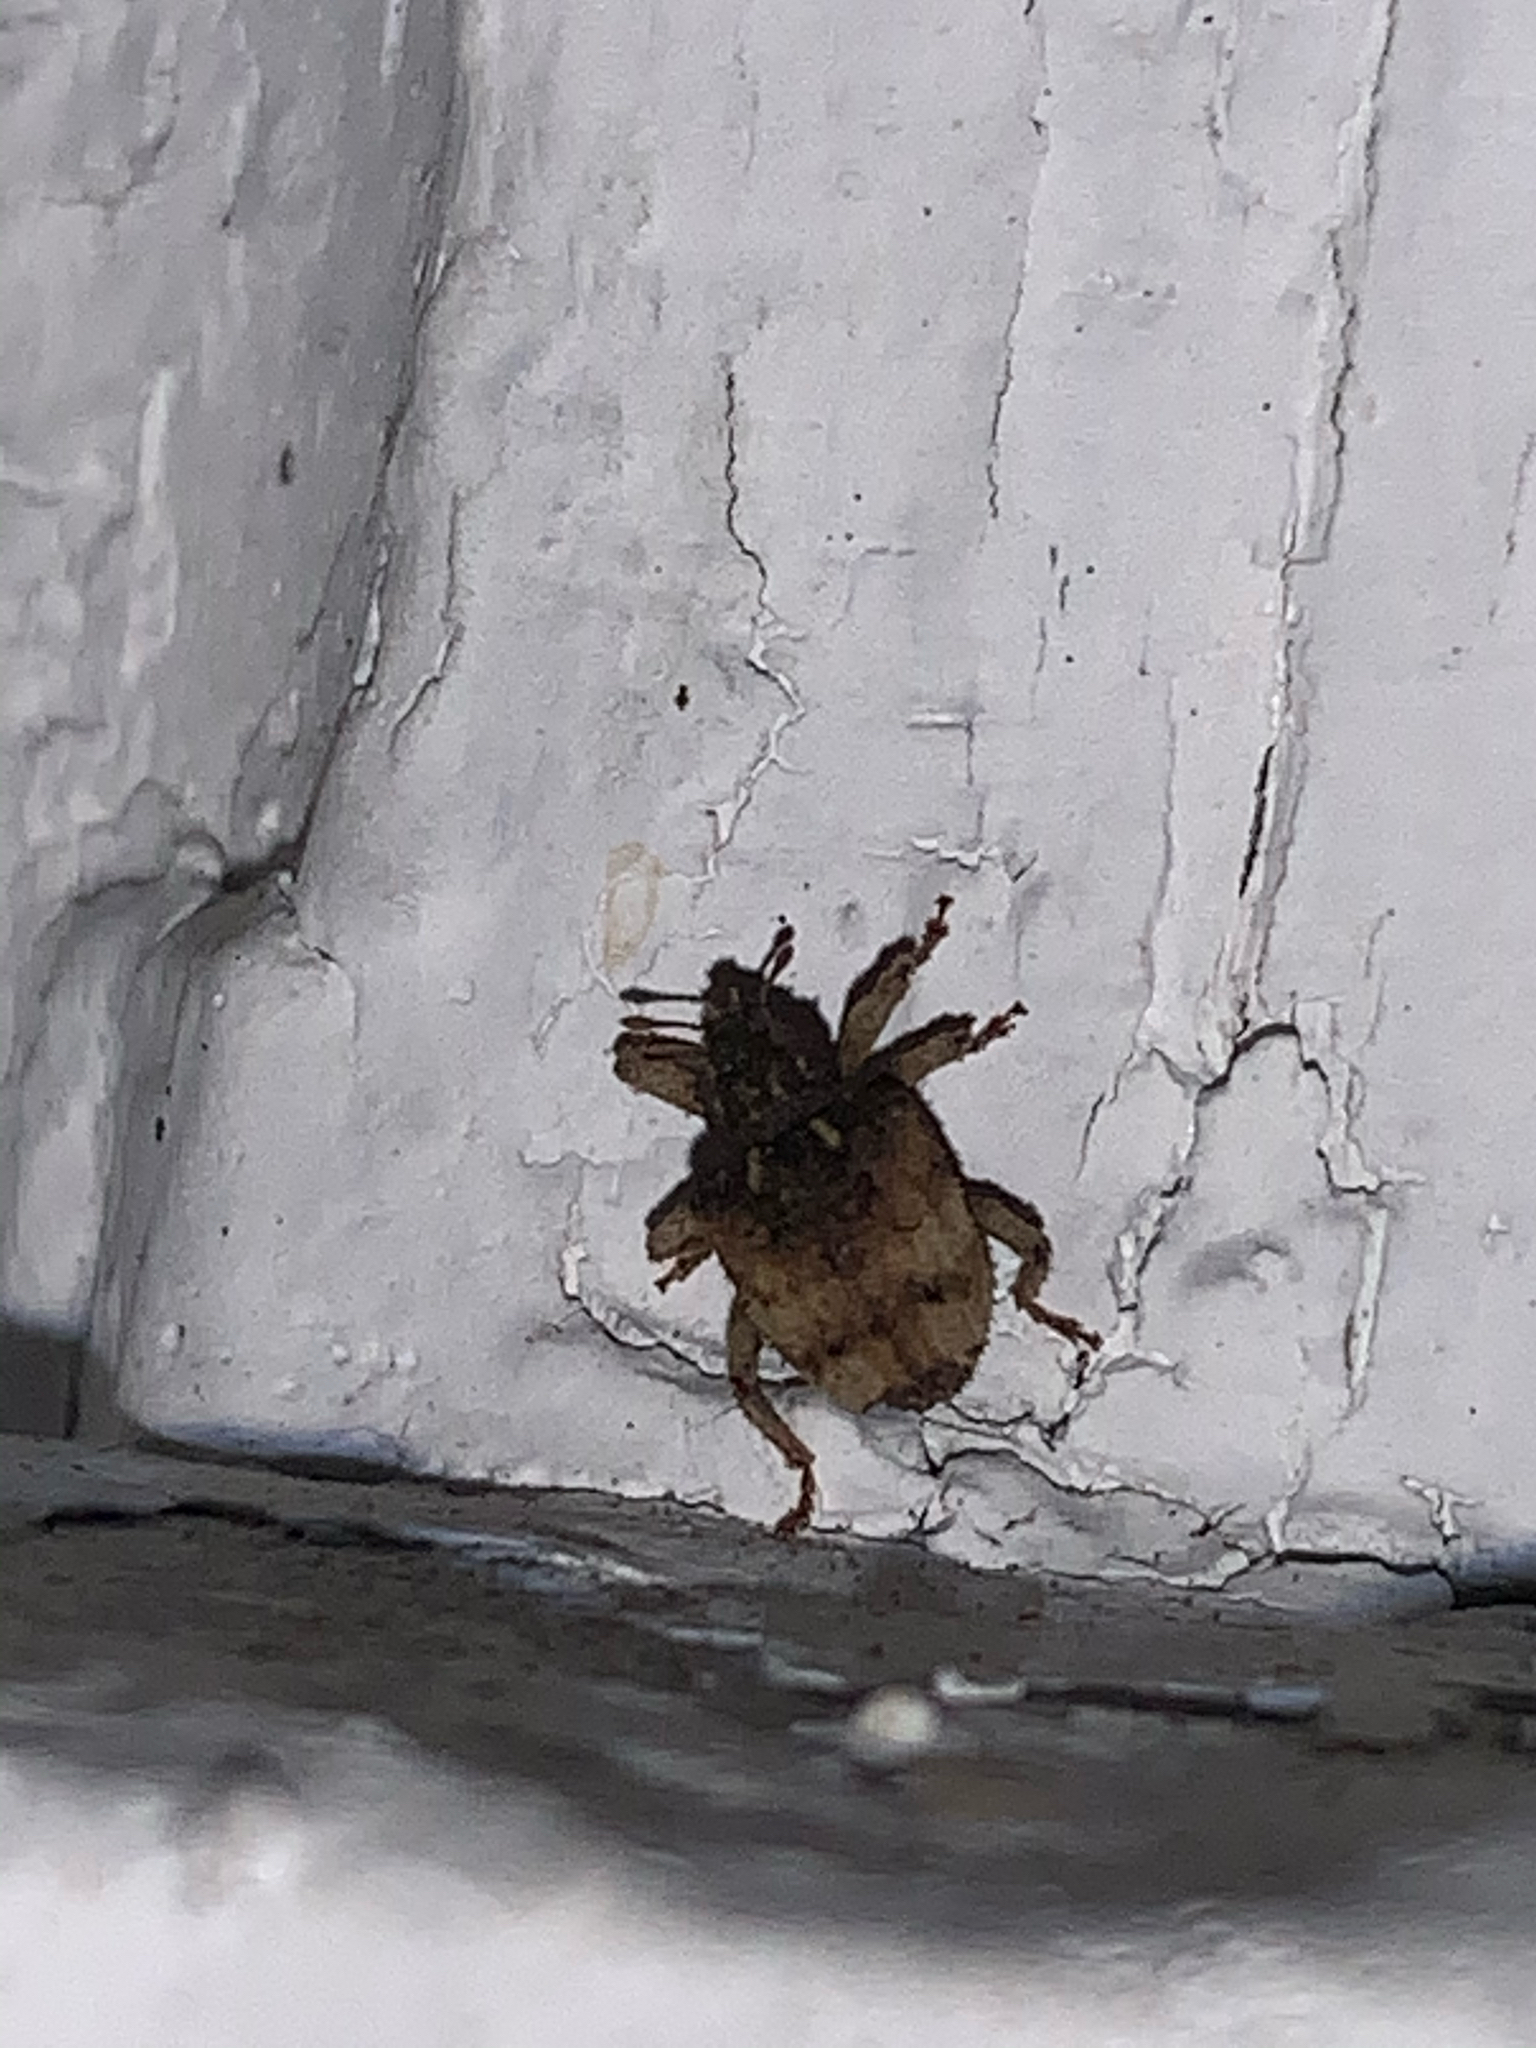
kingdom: Animalia
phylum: Arthropoda
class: Insecta
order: Coleoptera
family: Curculionidae
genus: Phyrdenus
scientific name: Phyrdenus divergens
